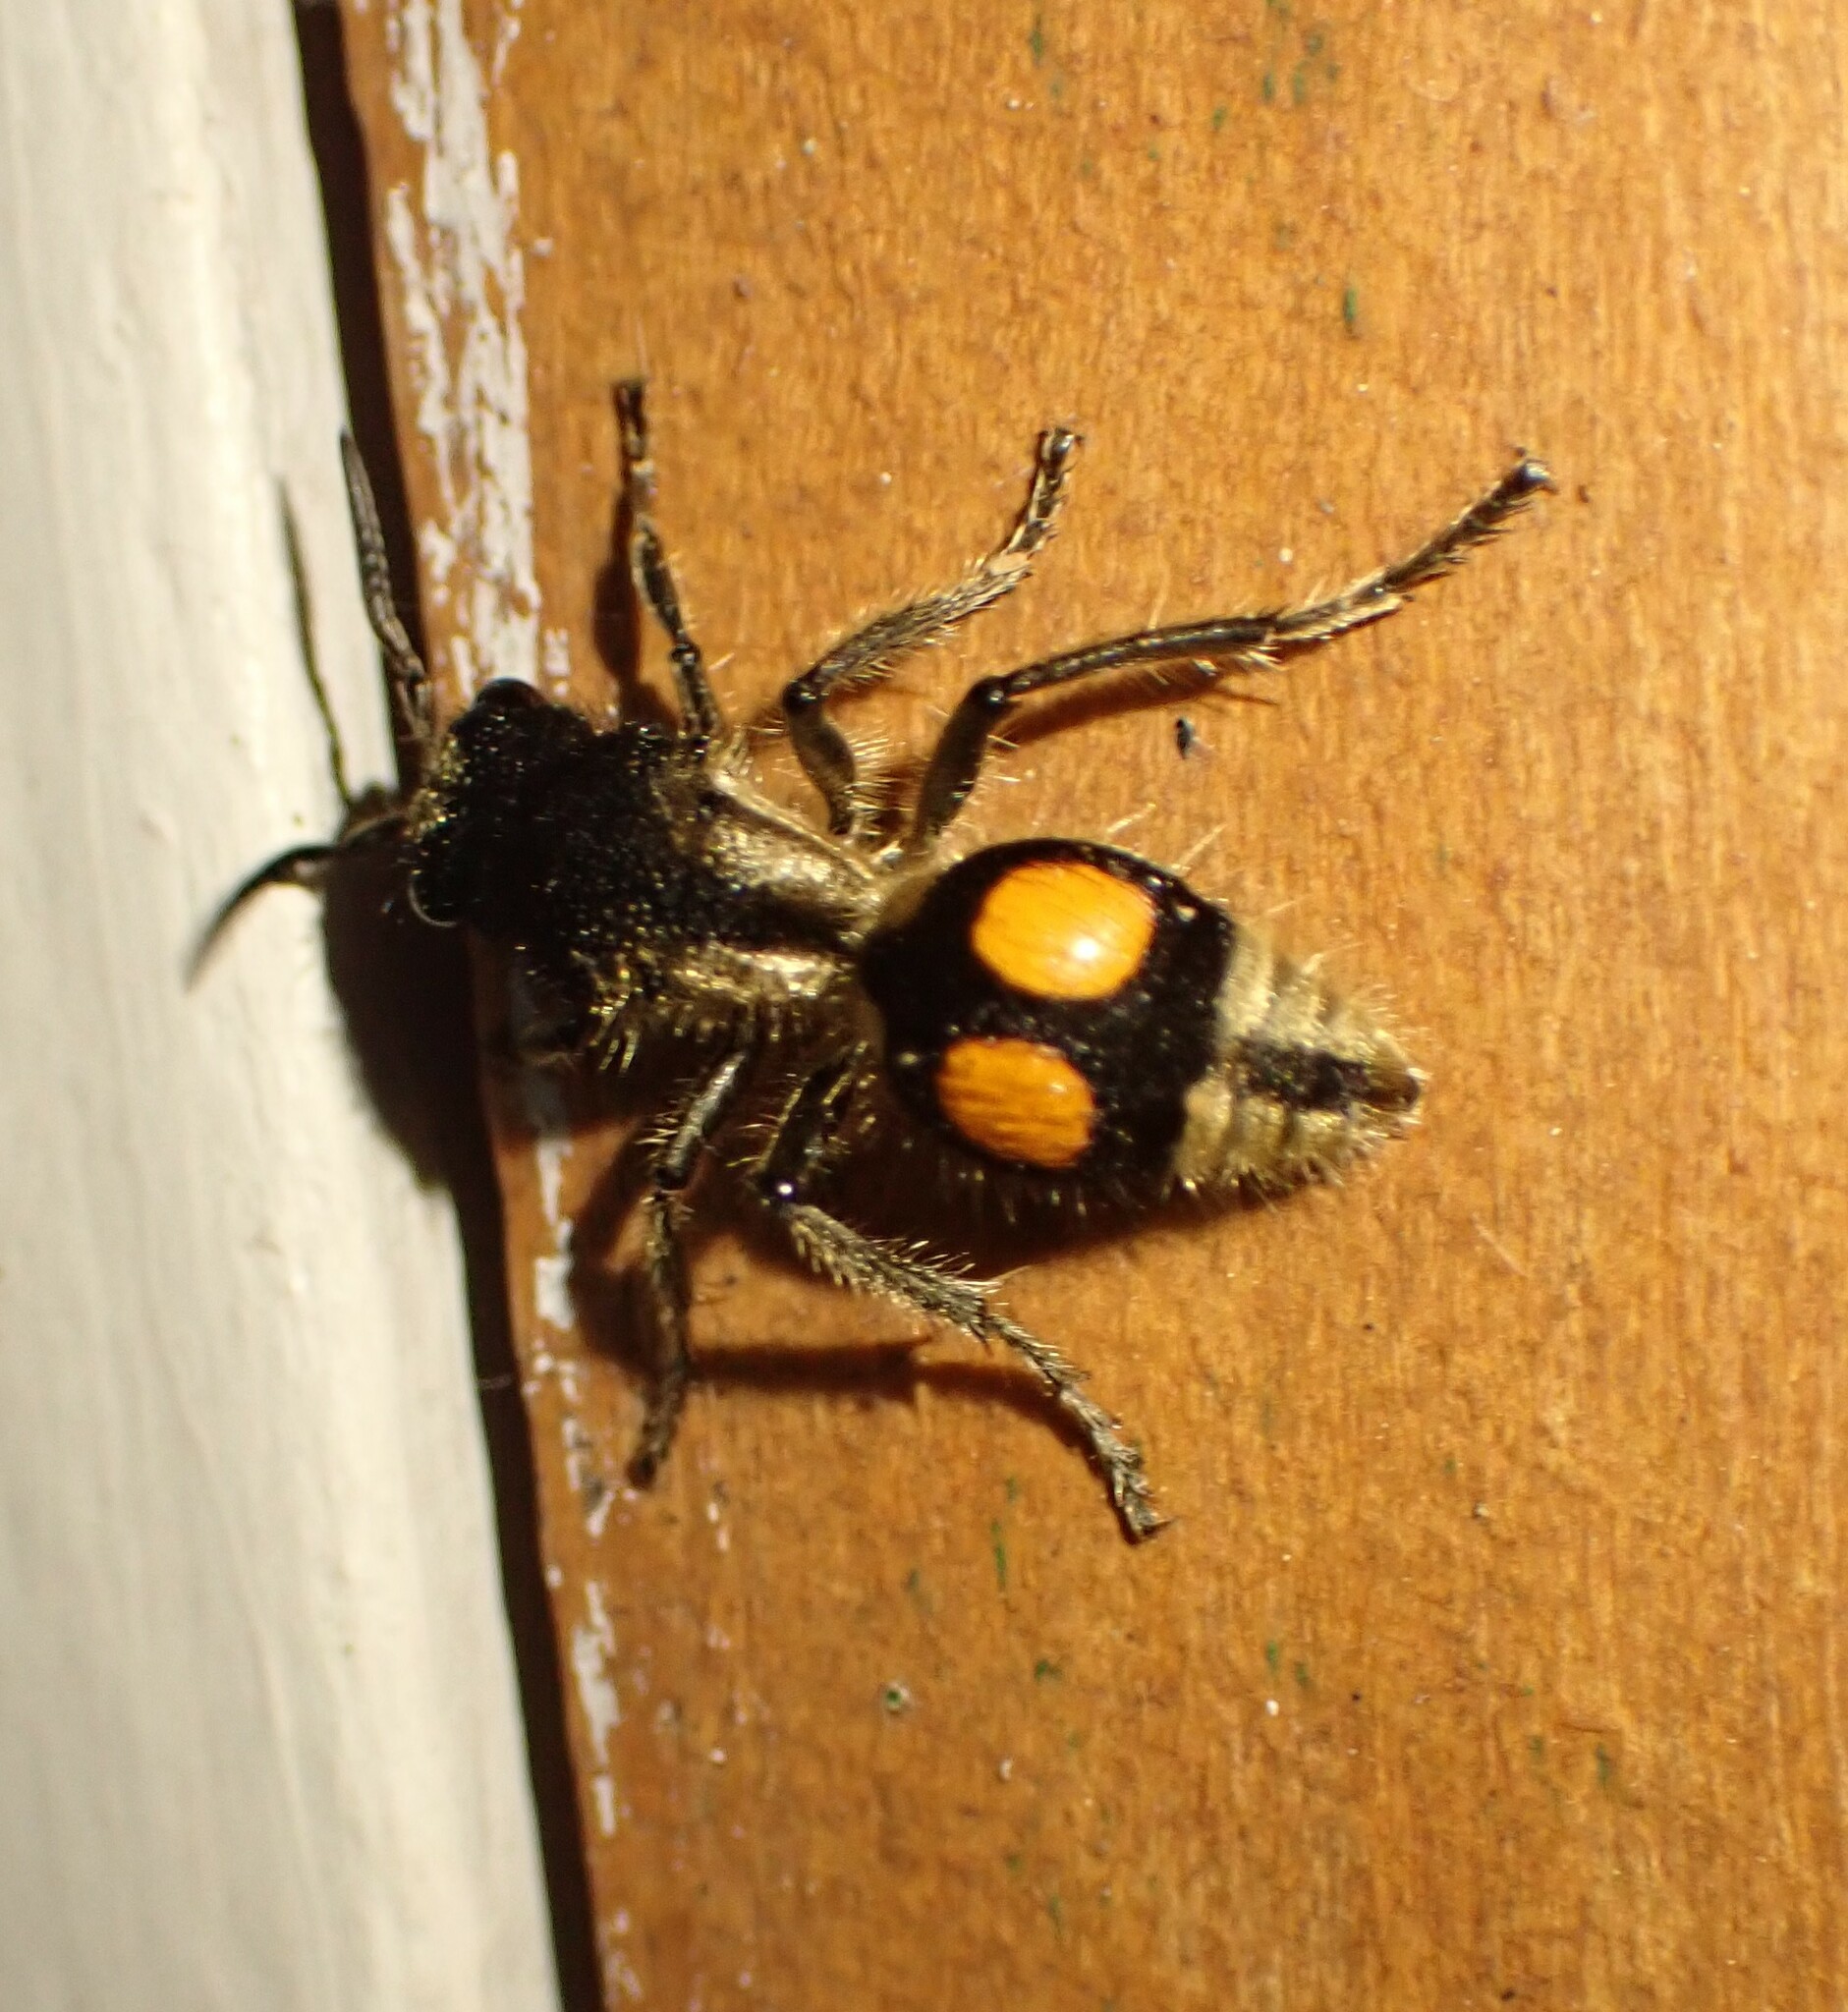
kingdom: Animalia
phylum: Arthropoda
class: Insecta
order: Hymenoptera
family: Mutillidae
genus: Hoplomutilla
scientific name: Hoplomutilla
